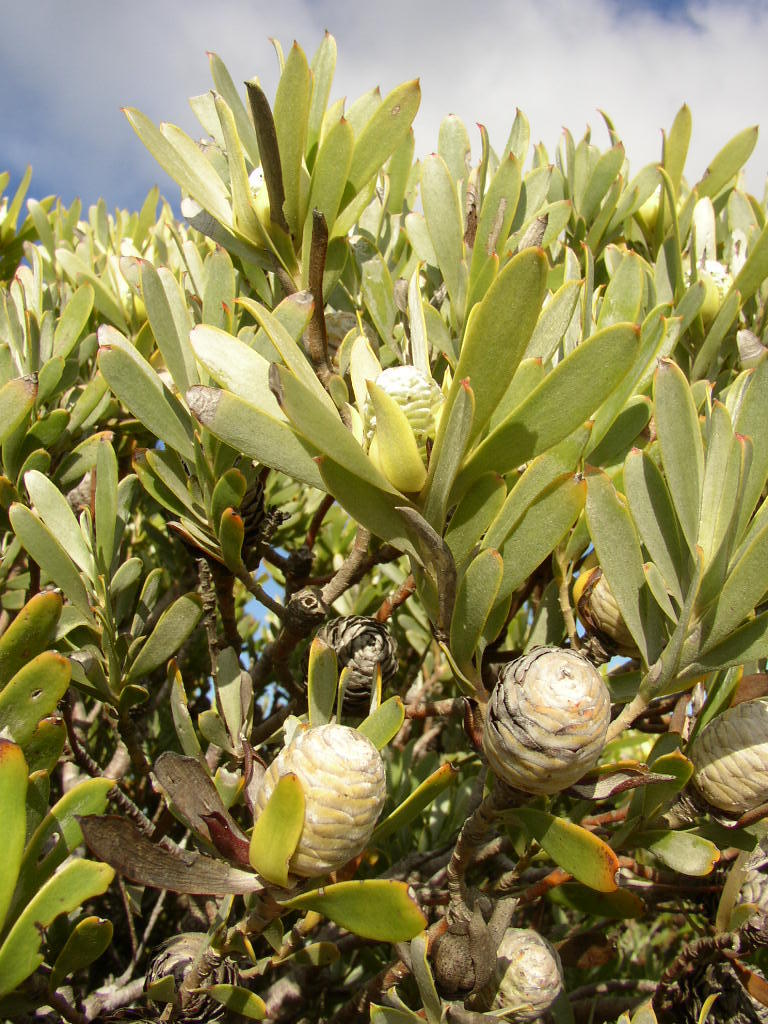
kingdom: Plantae
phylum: Tracheophyta
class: Magnoliopsida
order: Proteales
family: Proteaceae
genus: Leucadendron
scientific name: Leucadendron meridianum
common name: Limestone conebush
